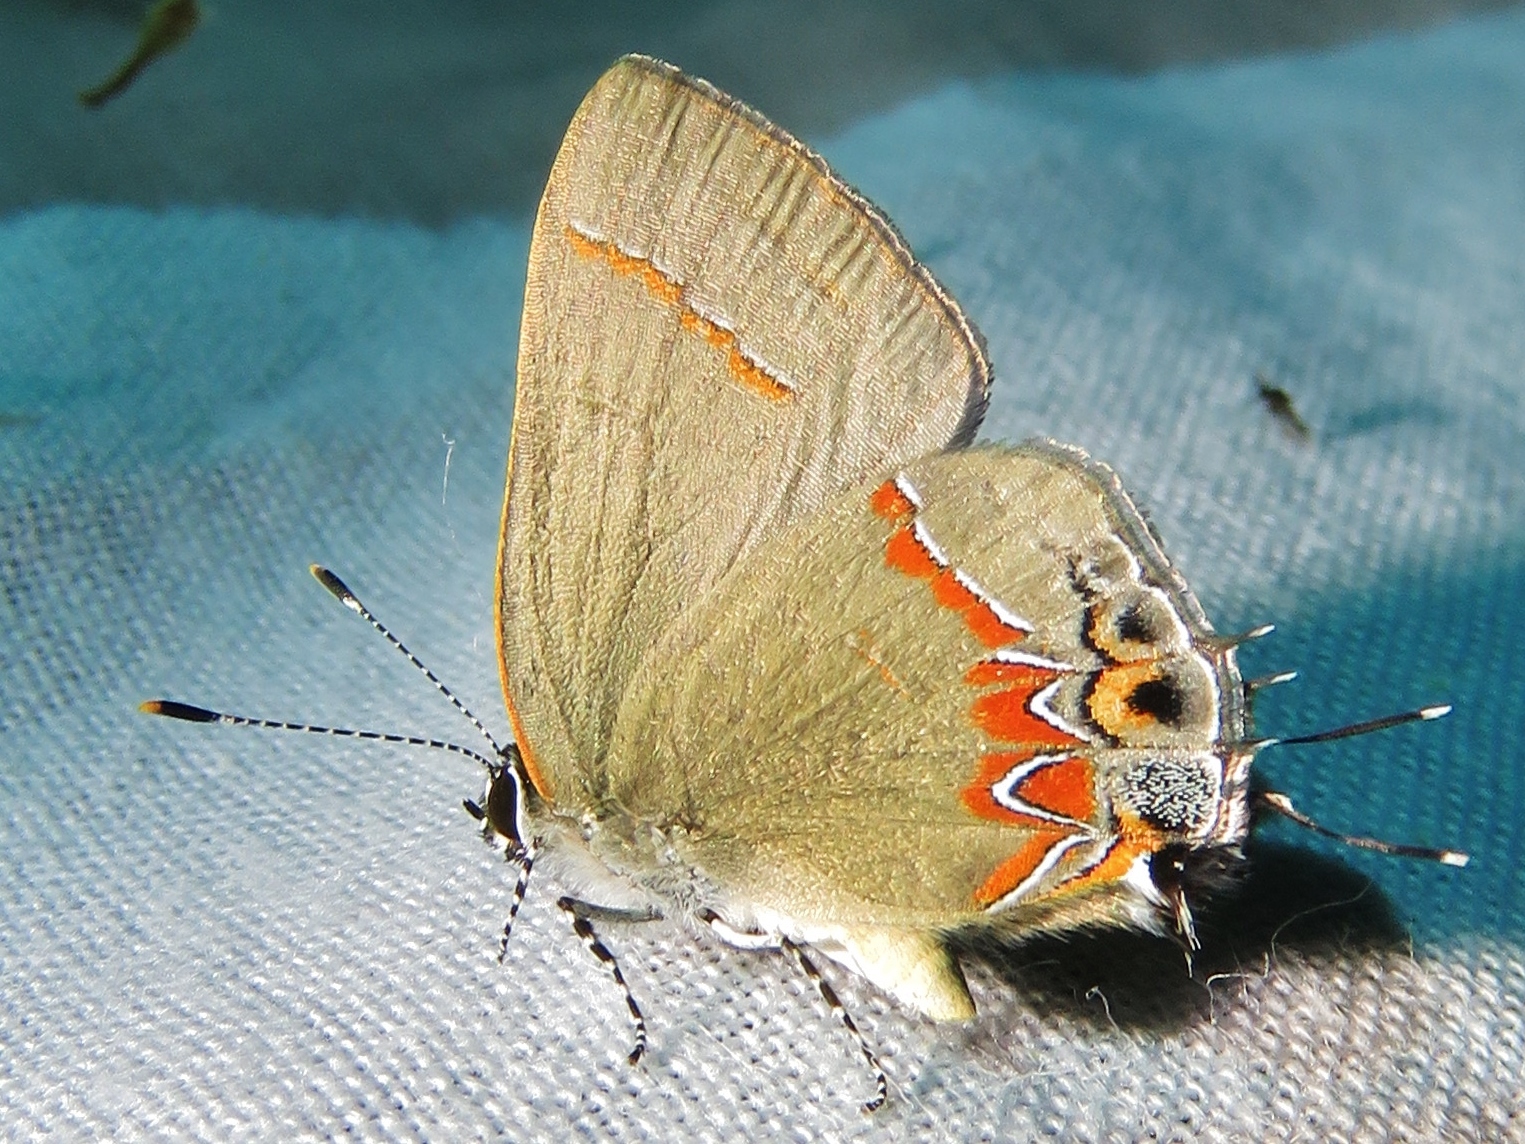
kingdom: Animalia
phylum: Arthropoda
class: Insecta
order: Lepidoptera
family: Lycaenidae
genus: Calycopis
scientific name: Calycopis isobeon
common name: Dusky-blue groundstreak
